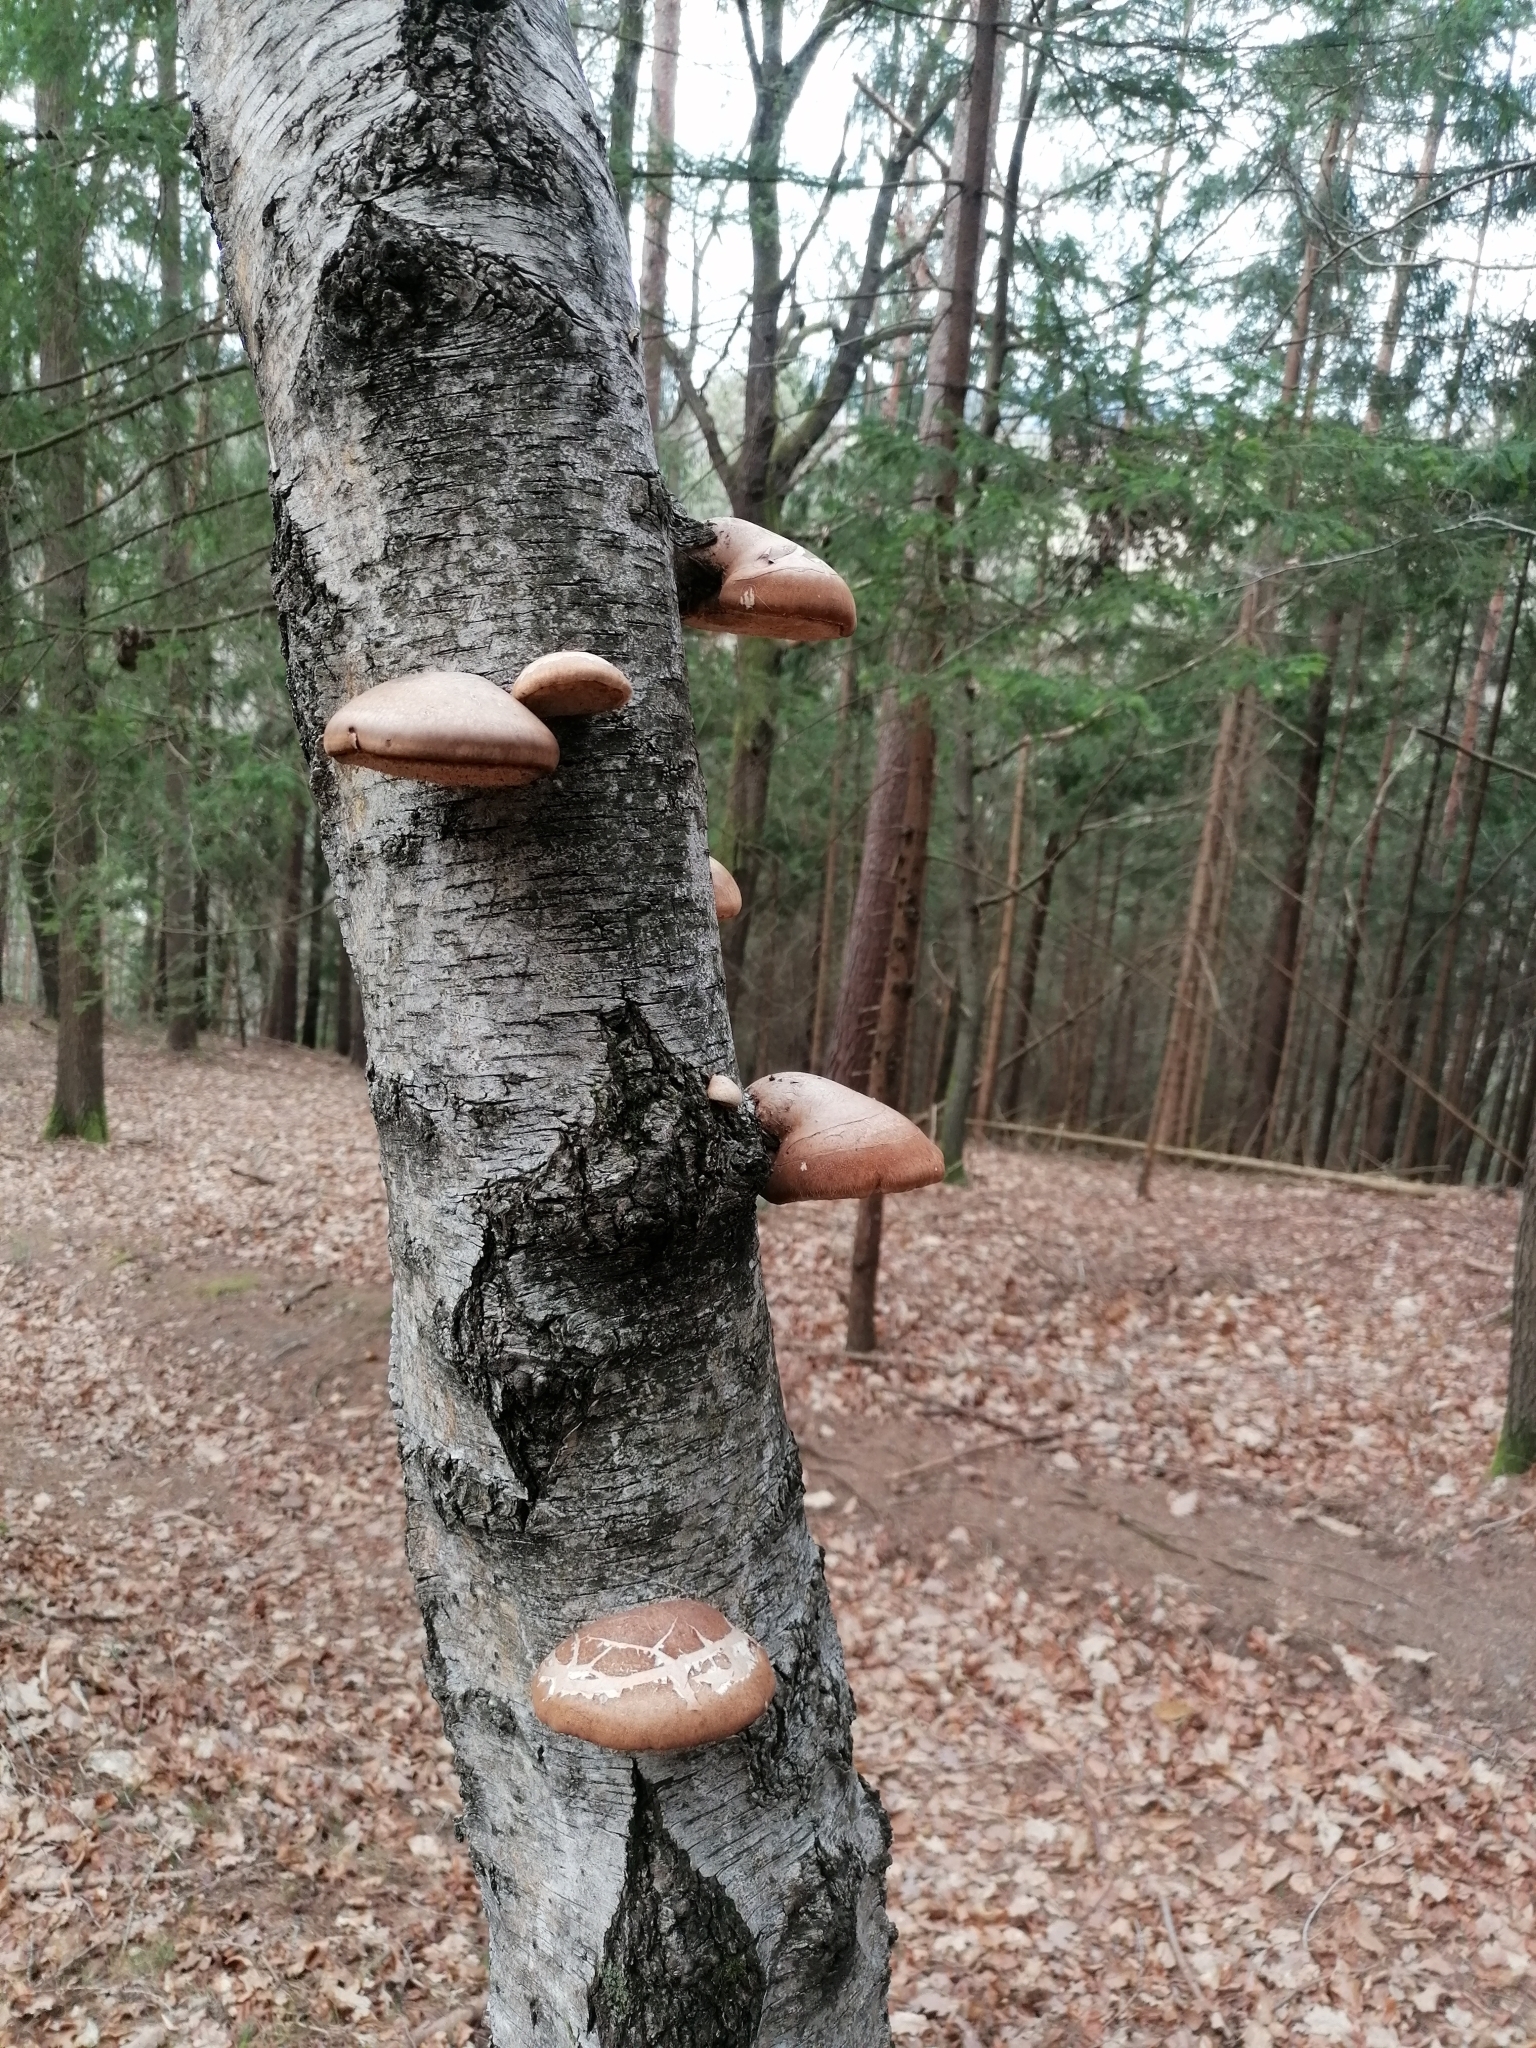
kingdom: Fungi
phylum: Basidiomycota
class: Agaricomycetes
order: Polyporales
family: Fomitopsidaceae
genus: Fomitopsis
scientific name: Fomitopsis betulina
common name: Birch polypore
